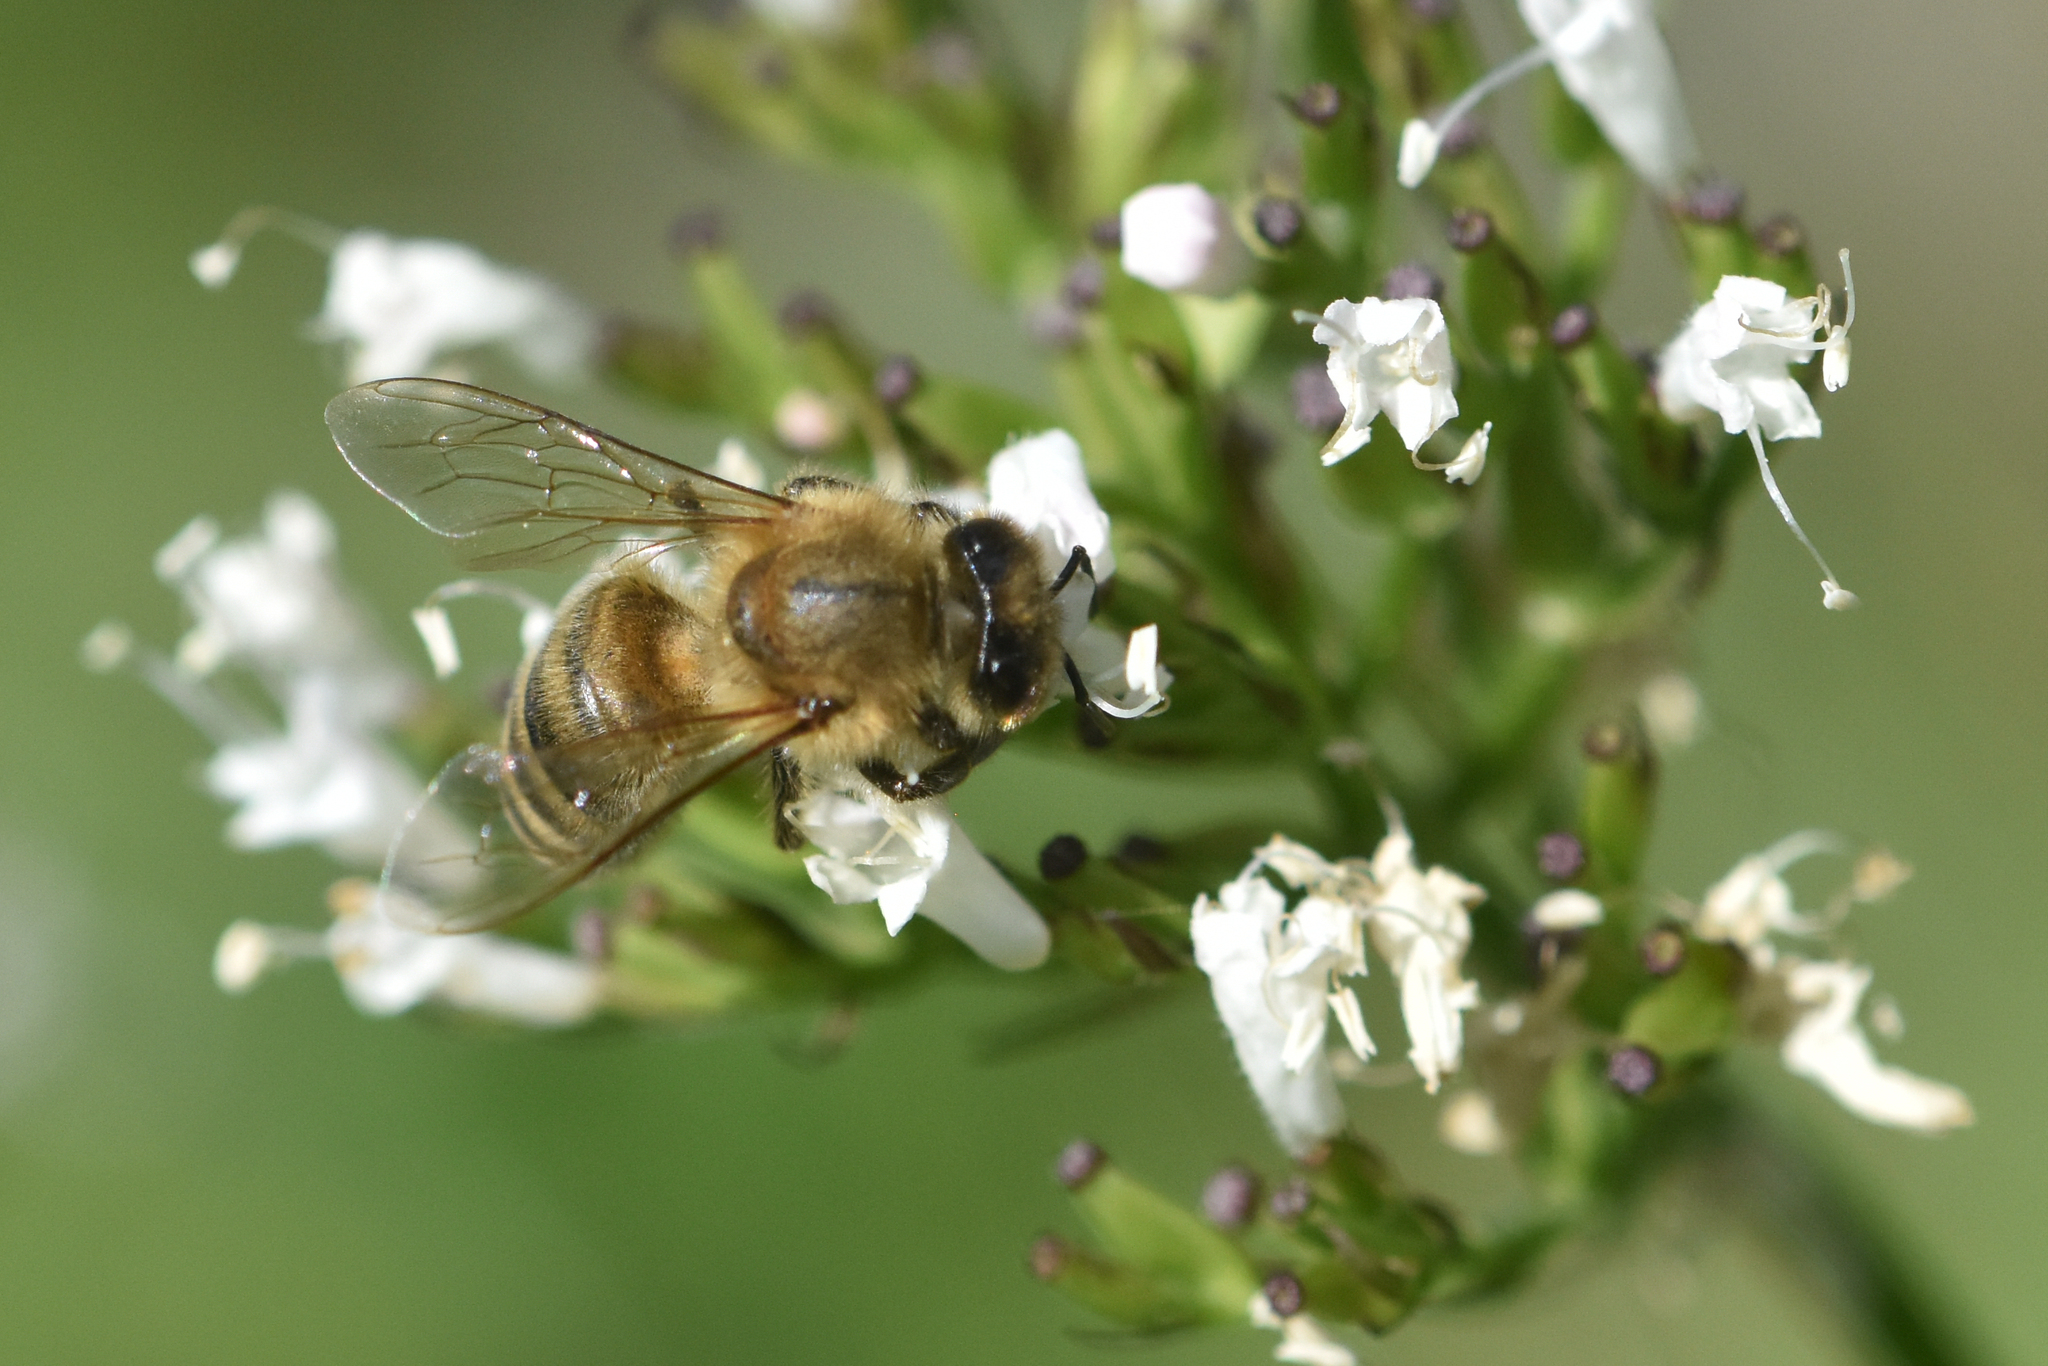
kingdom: Animalia
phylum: Arthropoda
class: Insecta
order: Hymenoptera
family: Apidae
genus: Apis
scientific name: Apis mellifera
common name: Honey bee
